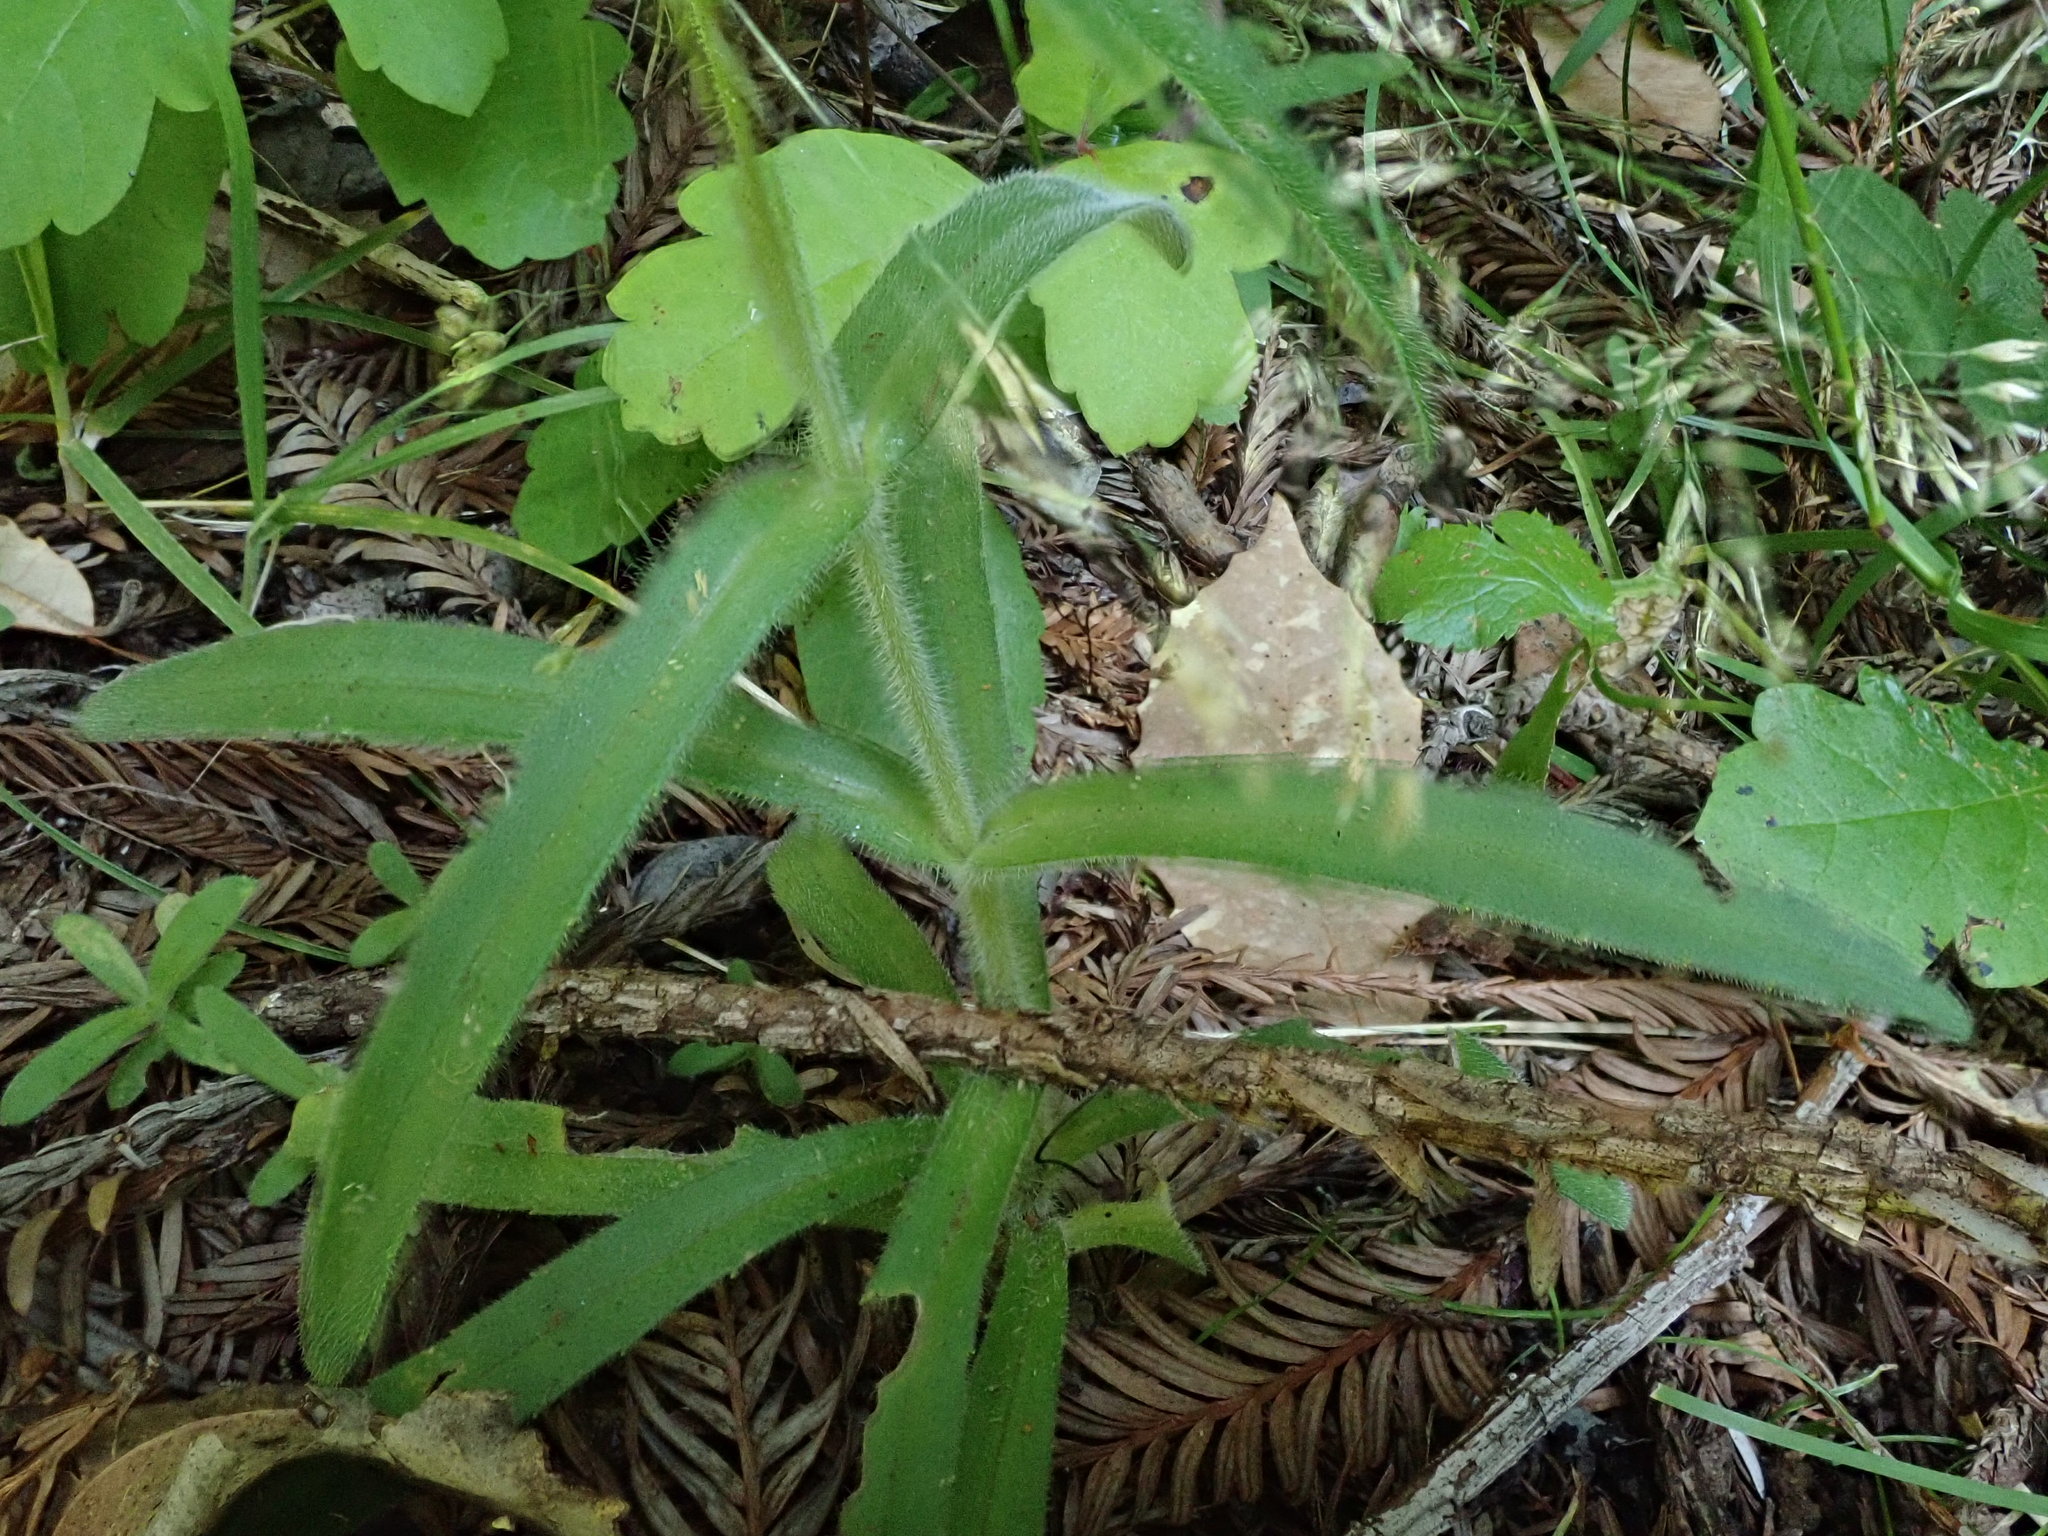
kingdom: Plantae
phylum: Tracheophyta
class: Magnoliopsida
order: Asterales
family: Asteraceae
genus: Anisocarpus
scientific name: Anisocarpus madioides
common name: Woodland madia
